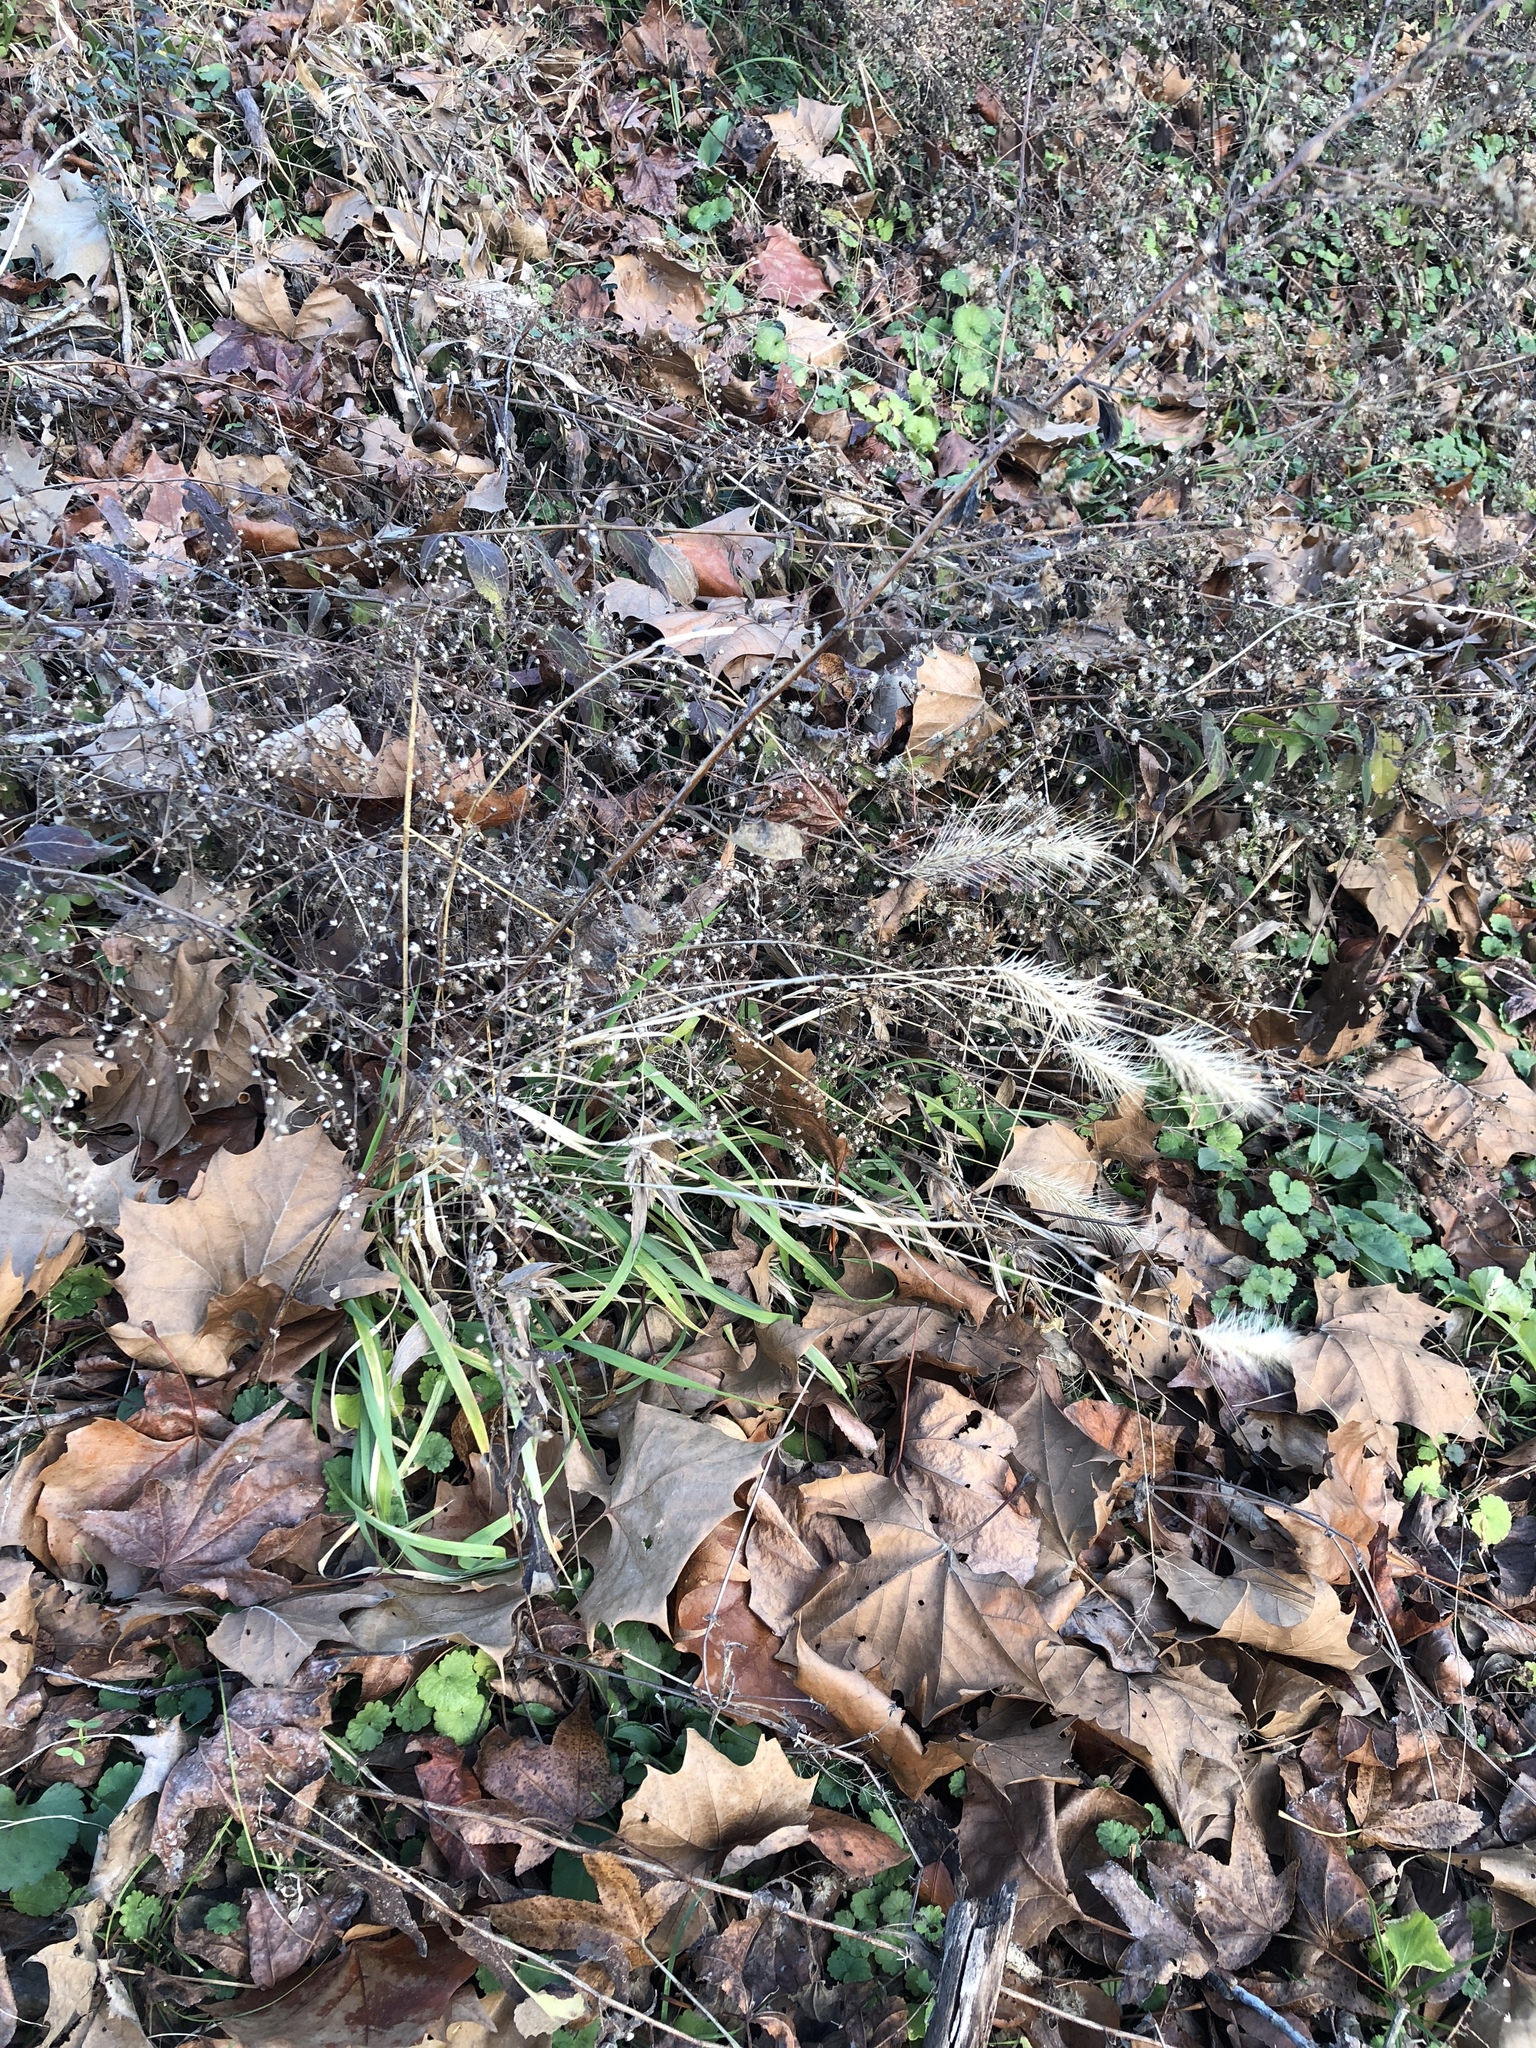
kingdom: Plantae
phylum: Tracheophyta
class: Liliopsida
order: Poales
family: Poaceae
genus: Elymus
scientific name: Elymus villosus
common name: Downy wild rye
